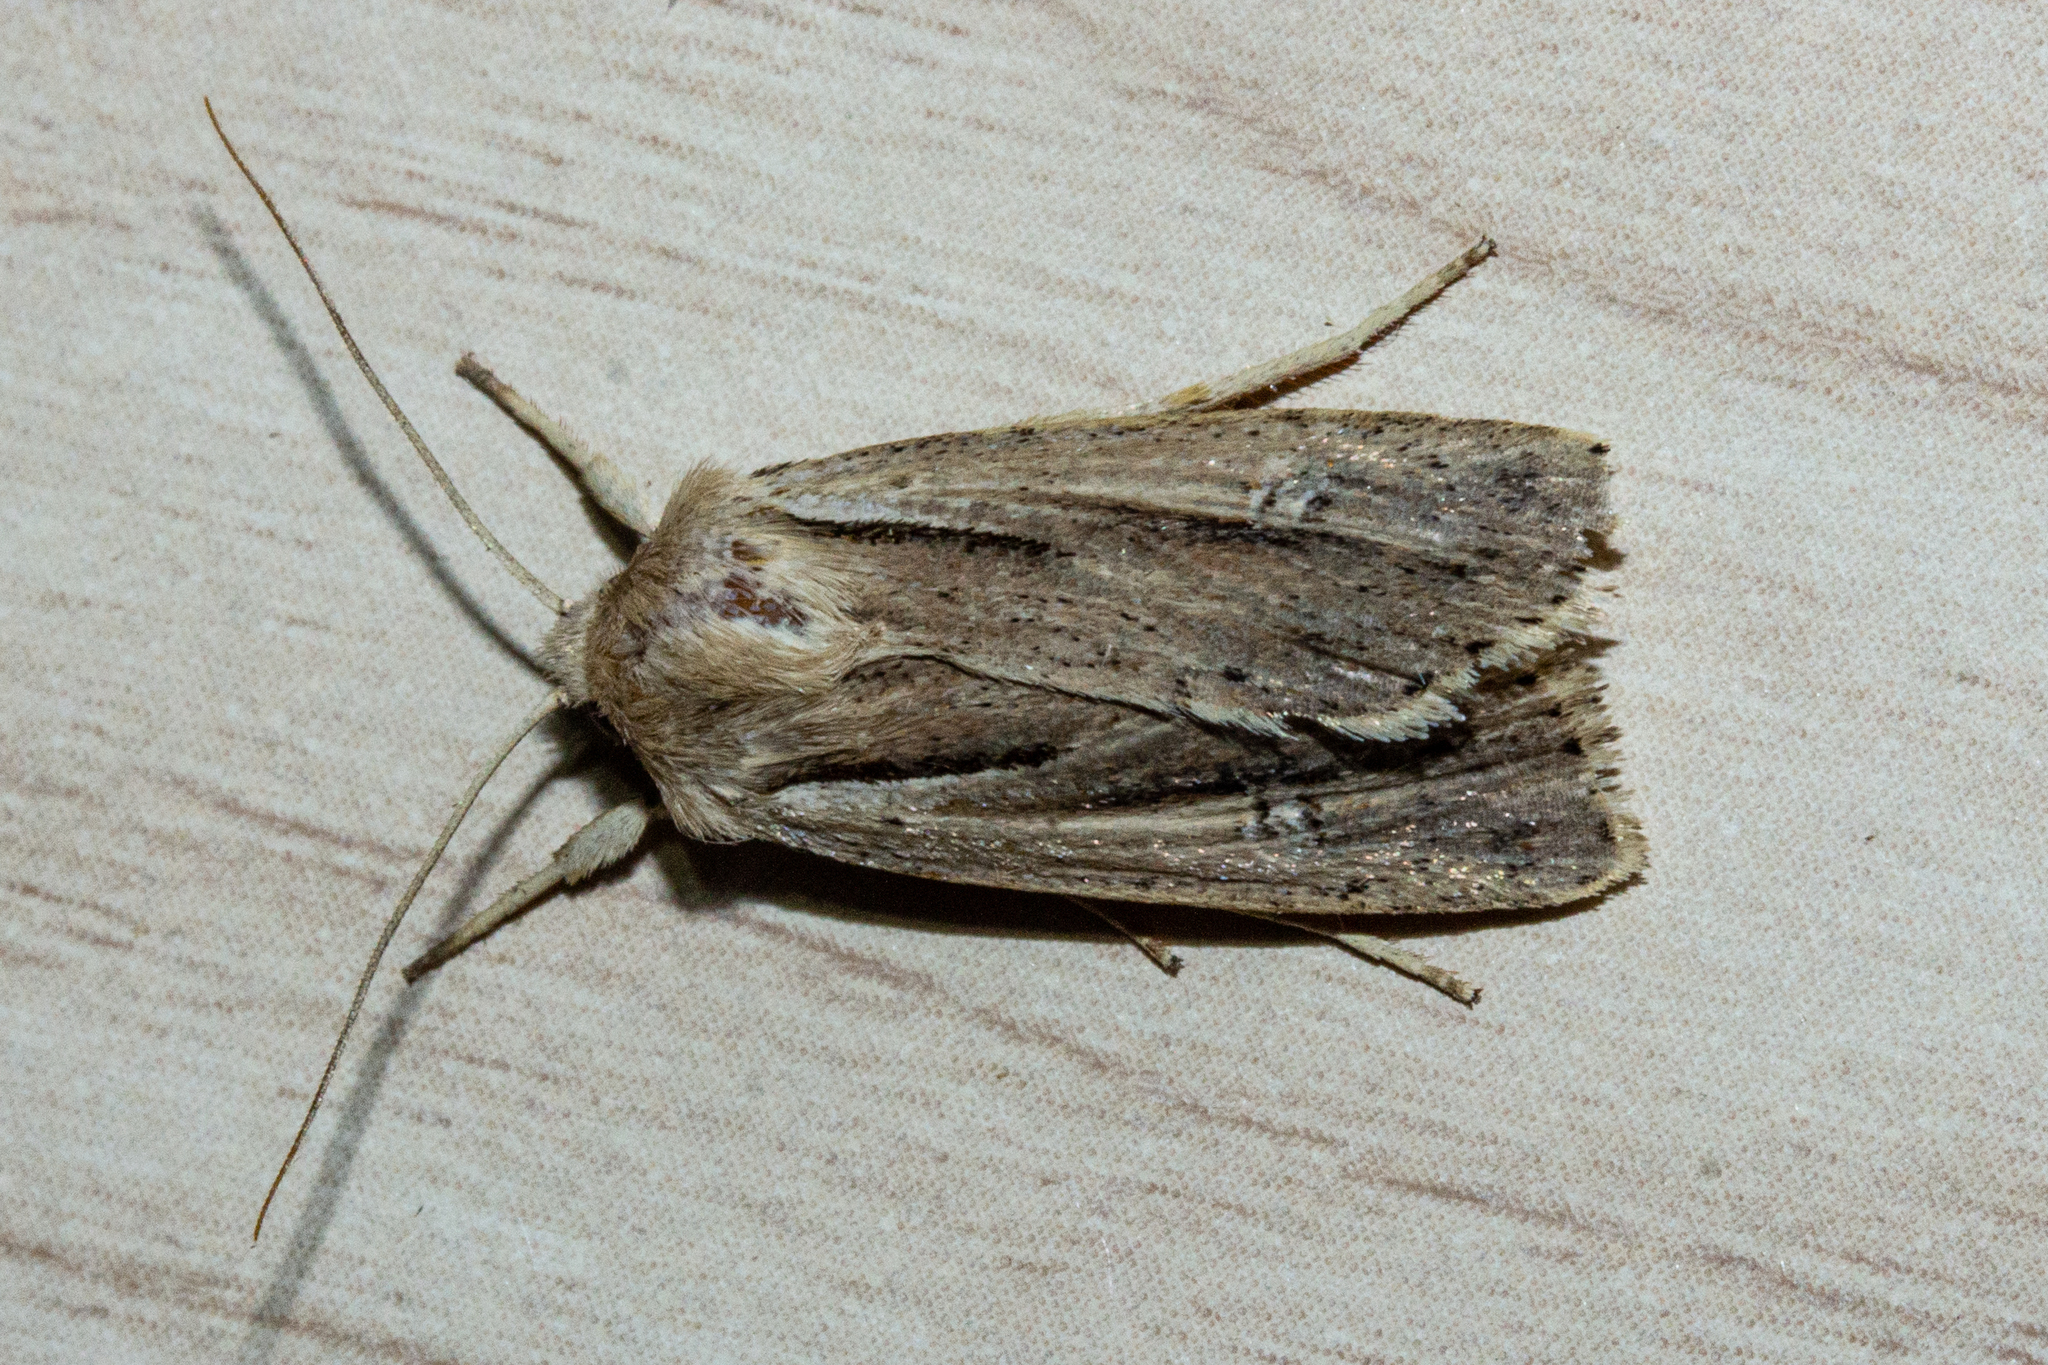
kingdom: Animalia
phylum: Arthropoda
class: Insecta
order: Lepidoptera
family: Noctuidae
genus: Ichneutica
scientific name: Ichneutica propria
